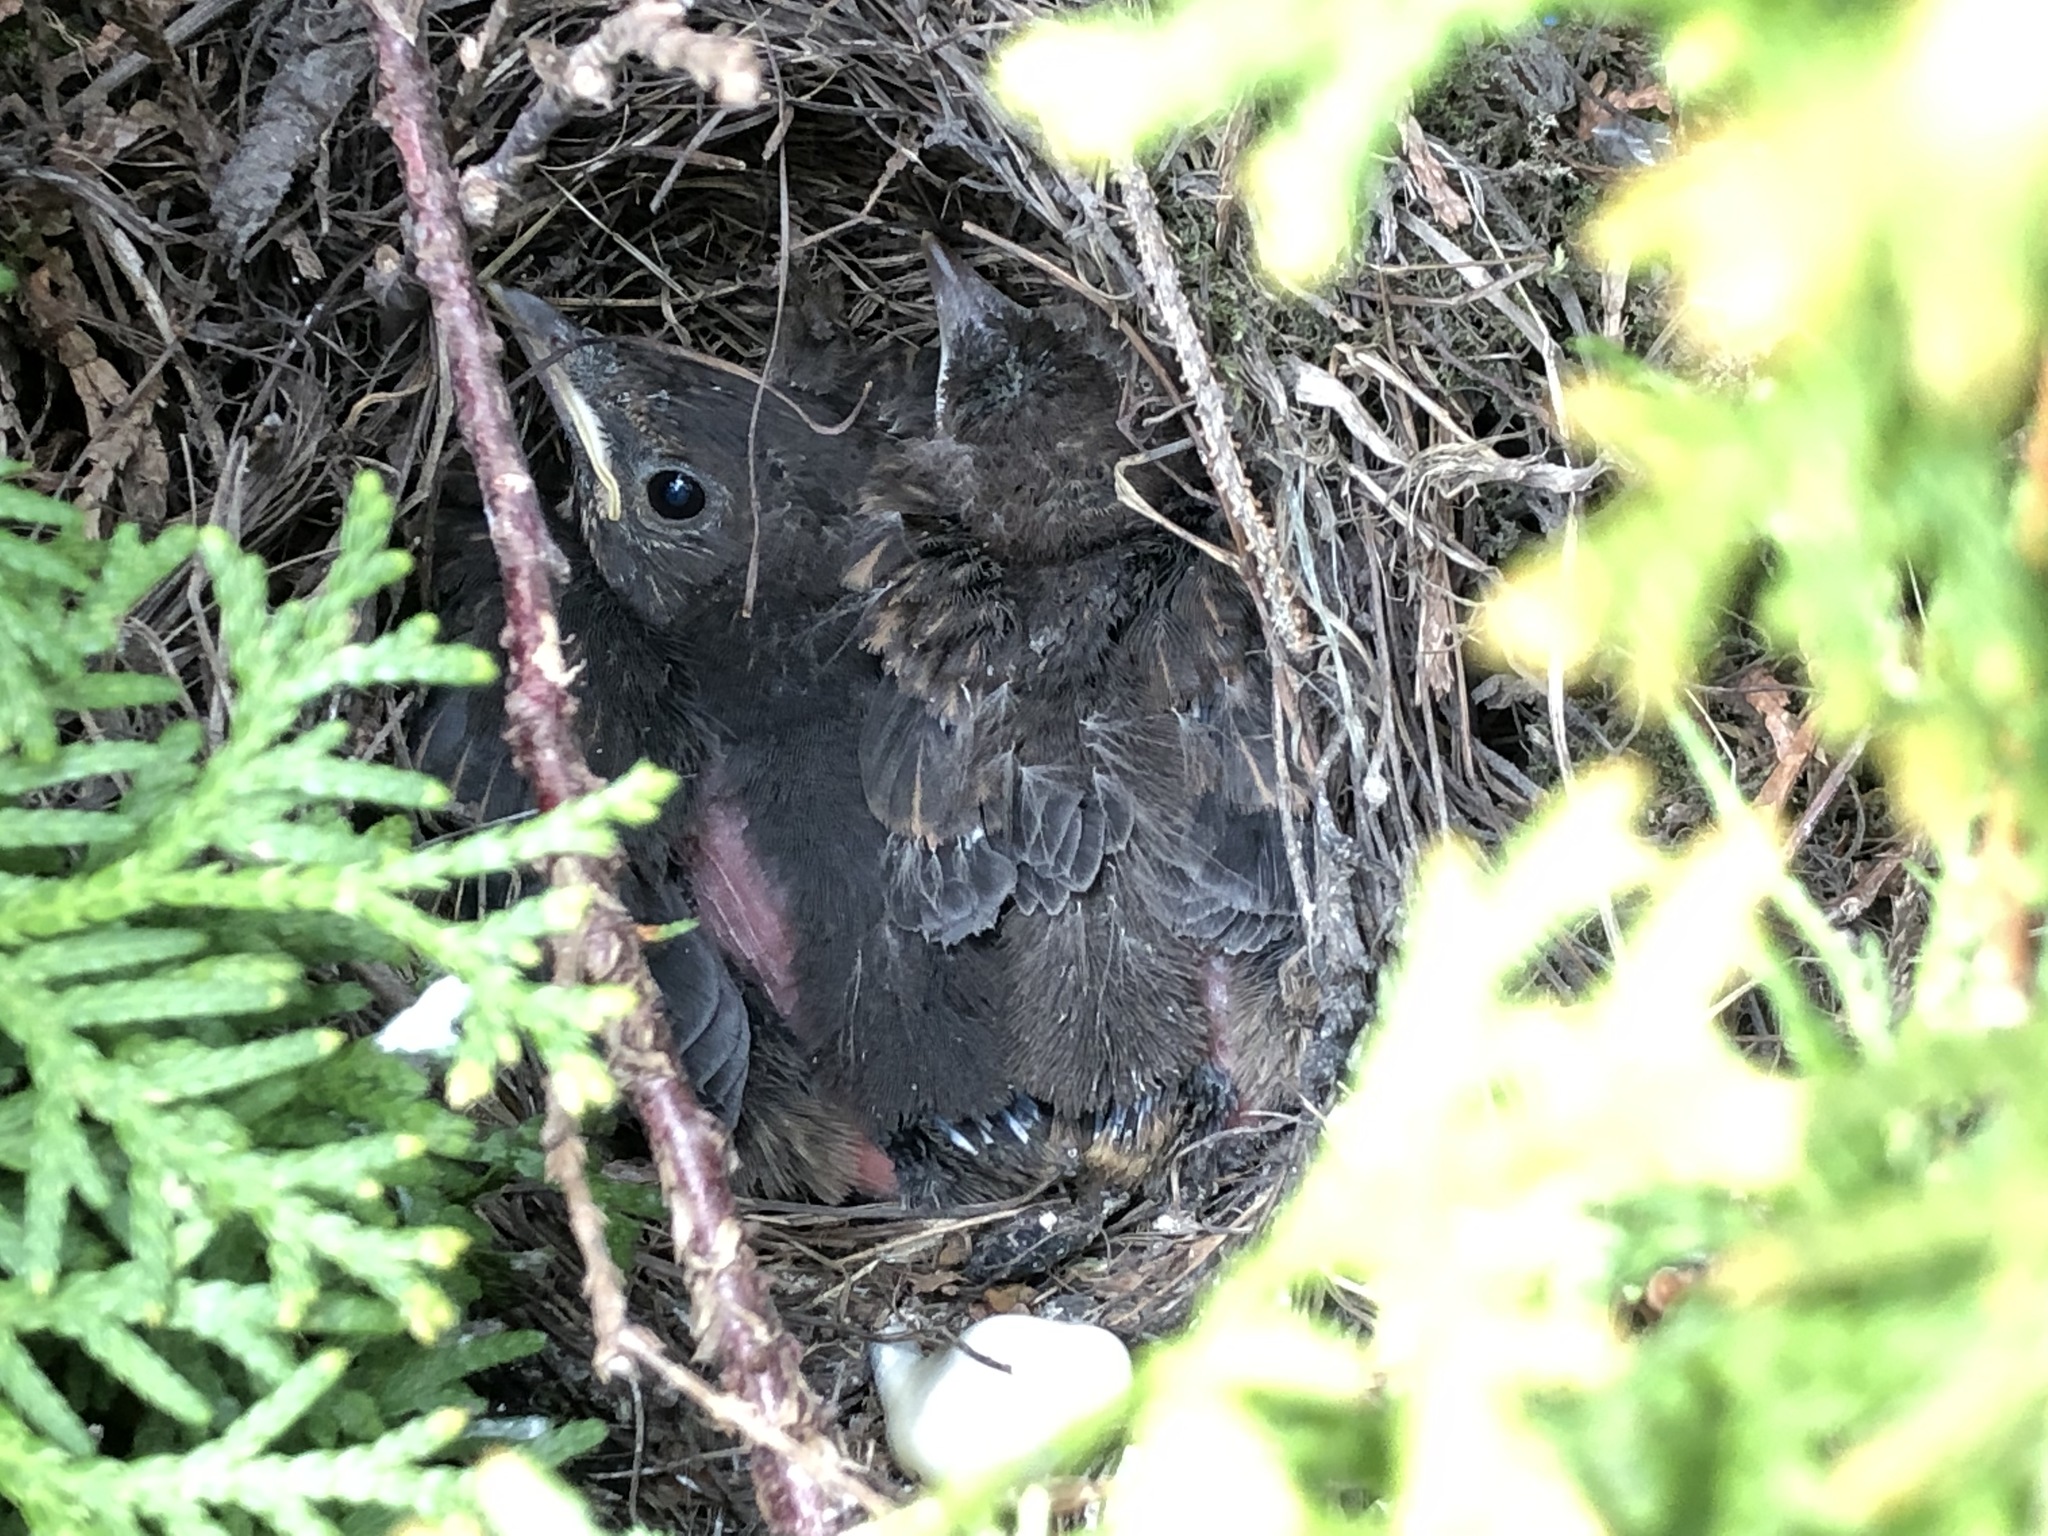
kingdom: Animalia
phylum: Chordata
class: Aves
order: Passeriformes
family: Turdidae
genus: Turdus
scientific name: Turdus merula
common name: Common blackbird
